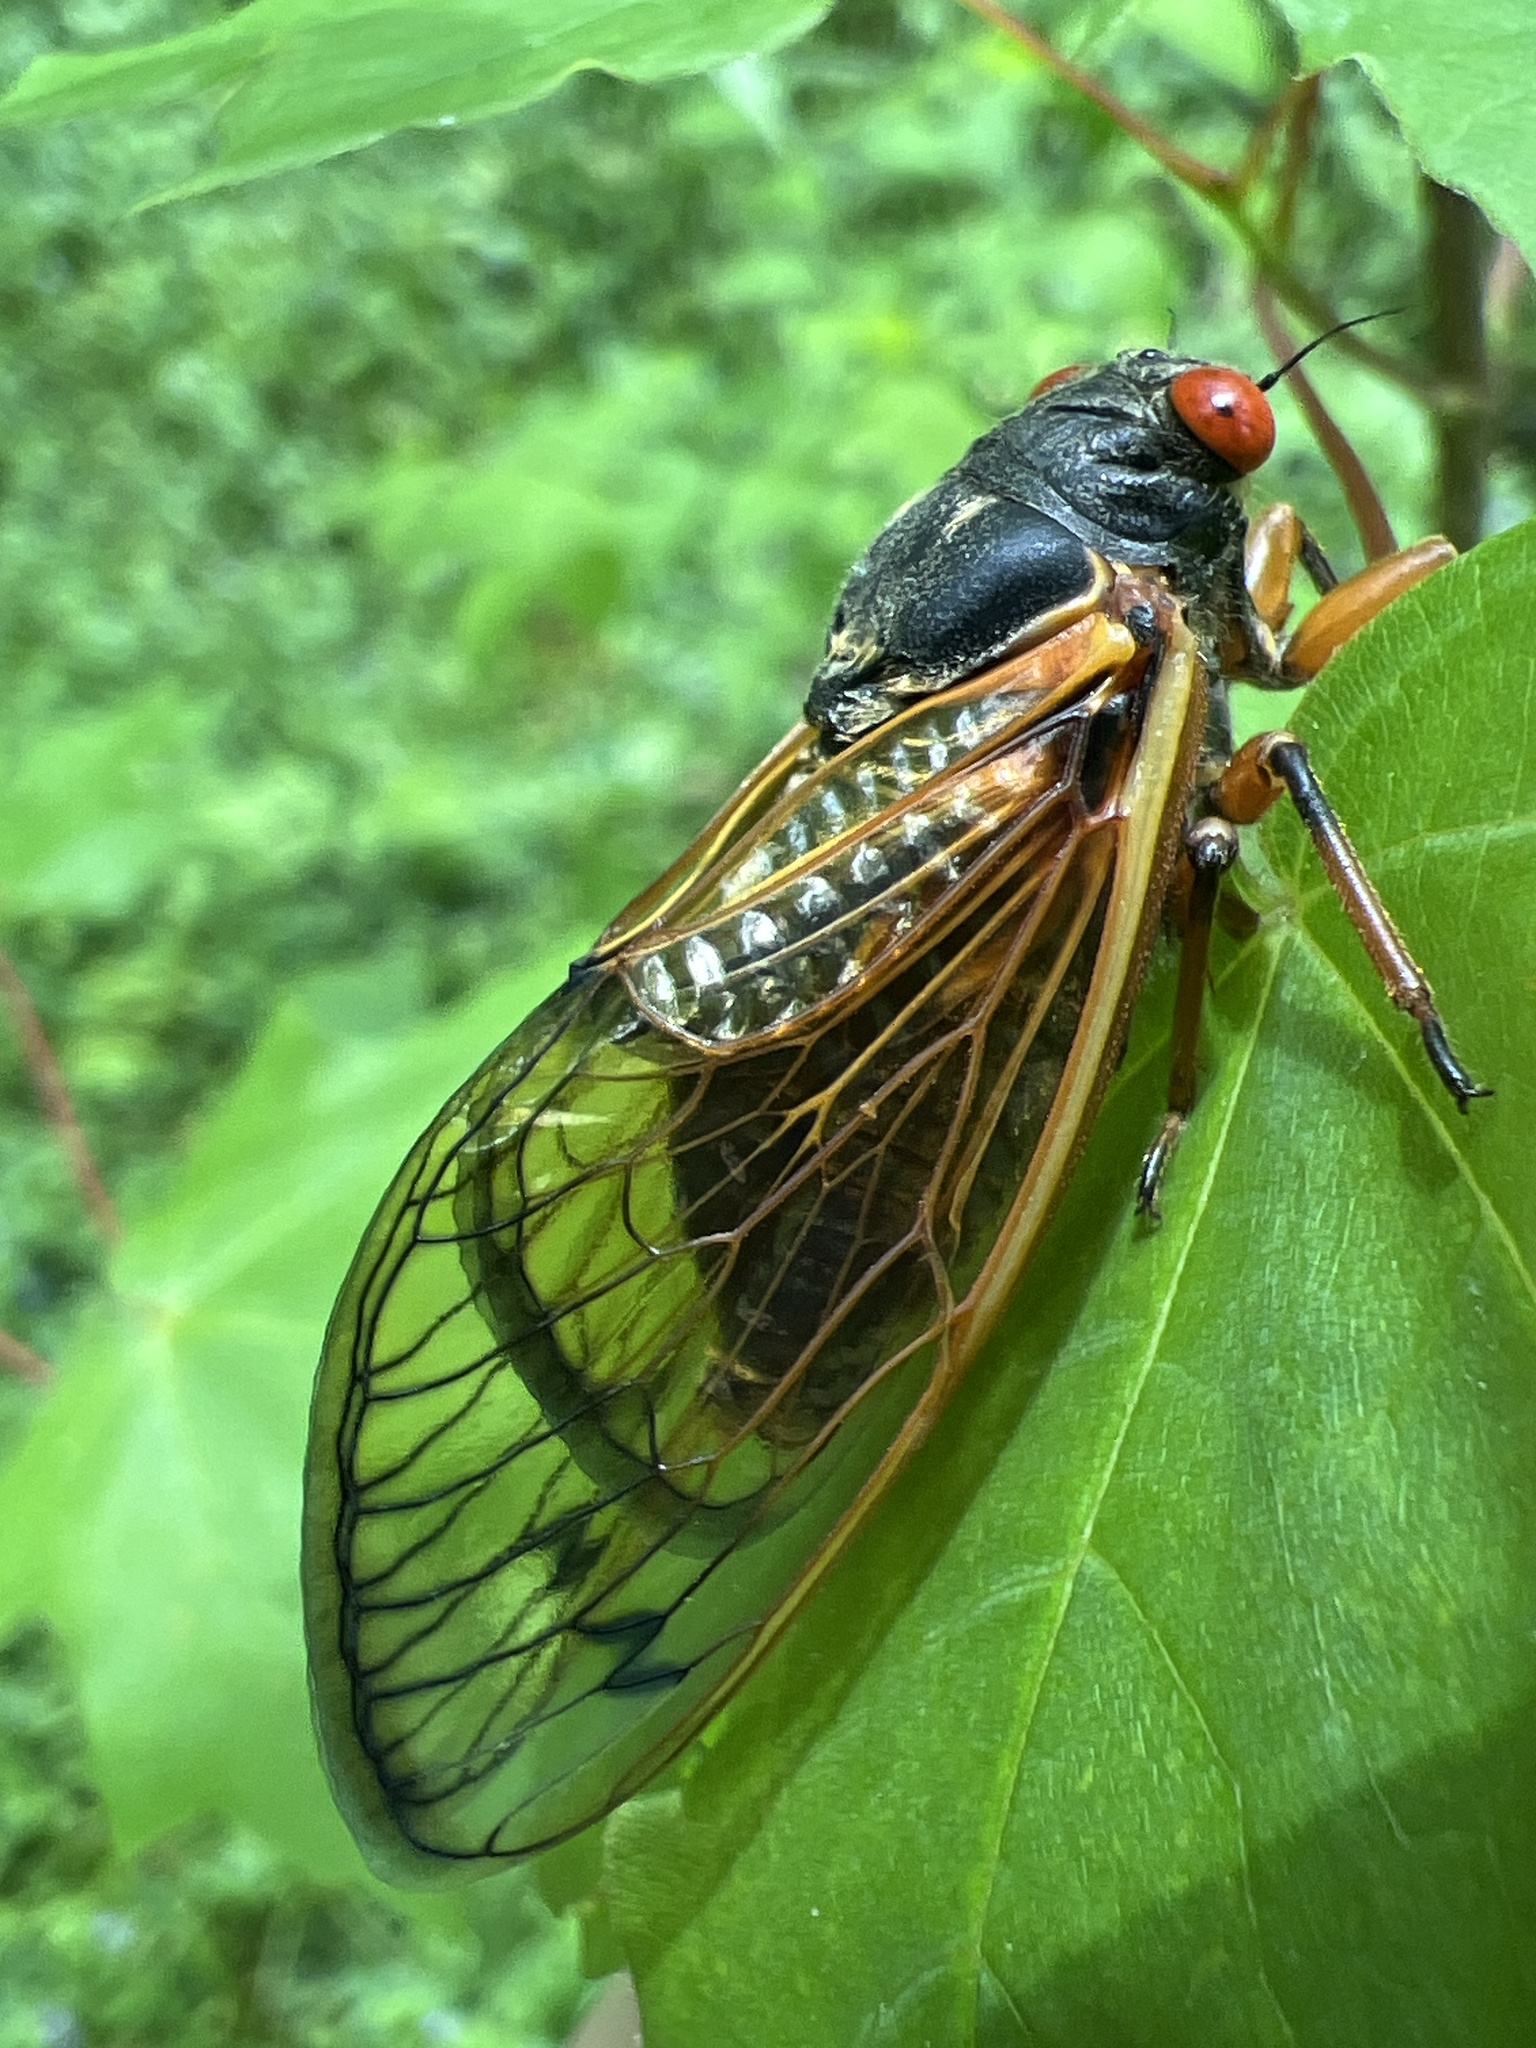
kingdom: Animalia
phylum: Arthropoda
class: Insecta
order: Hemiptera
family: Cicadidae
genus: Magicicada
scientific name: Magicicada
